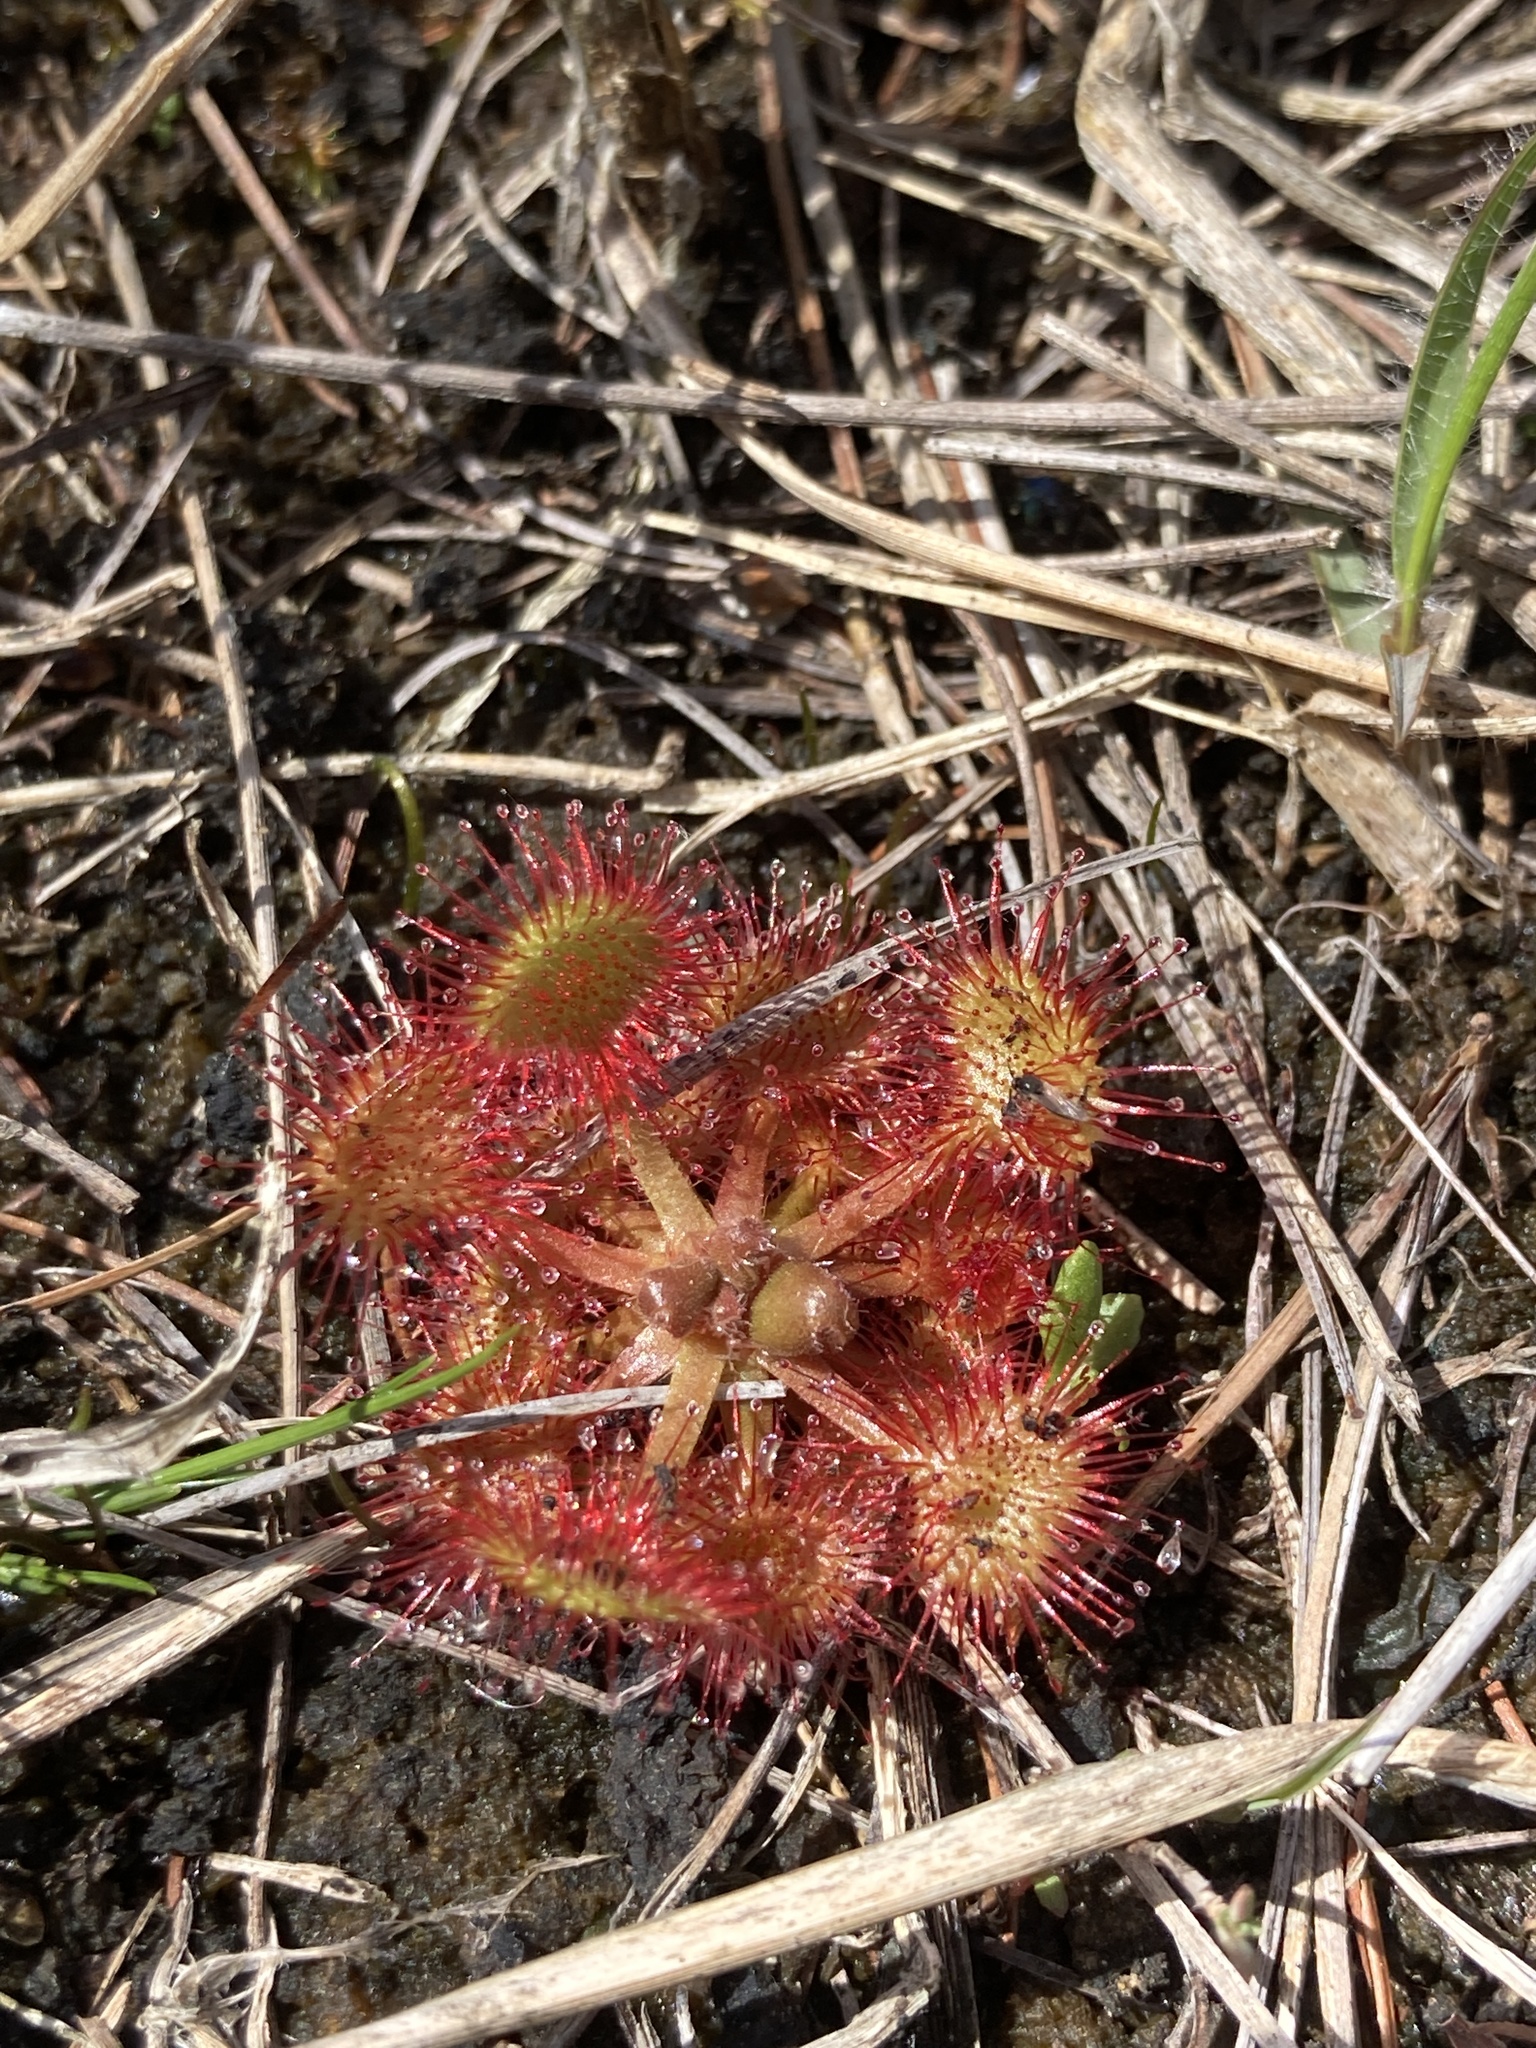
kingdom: Plantae
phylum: Tracheophyta
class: Magnoliopsida
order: Caryophyllales
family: Droseraceae
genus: Drosera
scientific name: Drosera rotundifolia
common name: Round-leaved sundew
